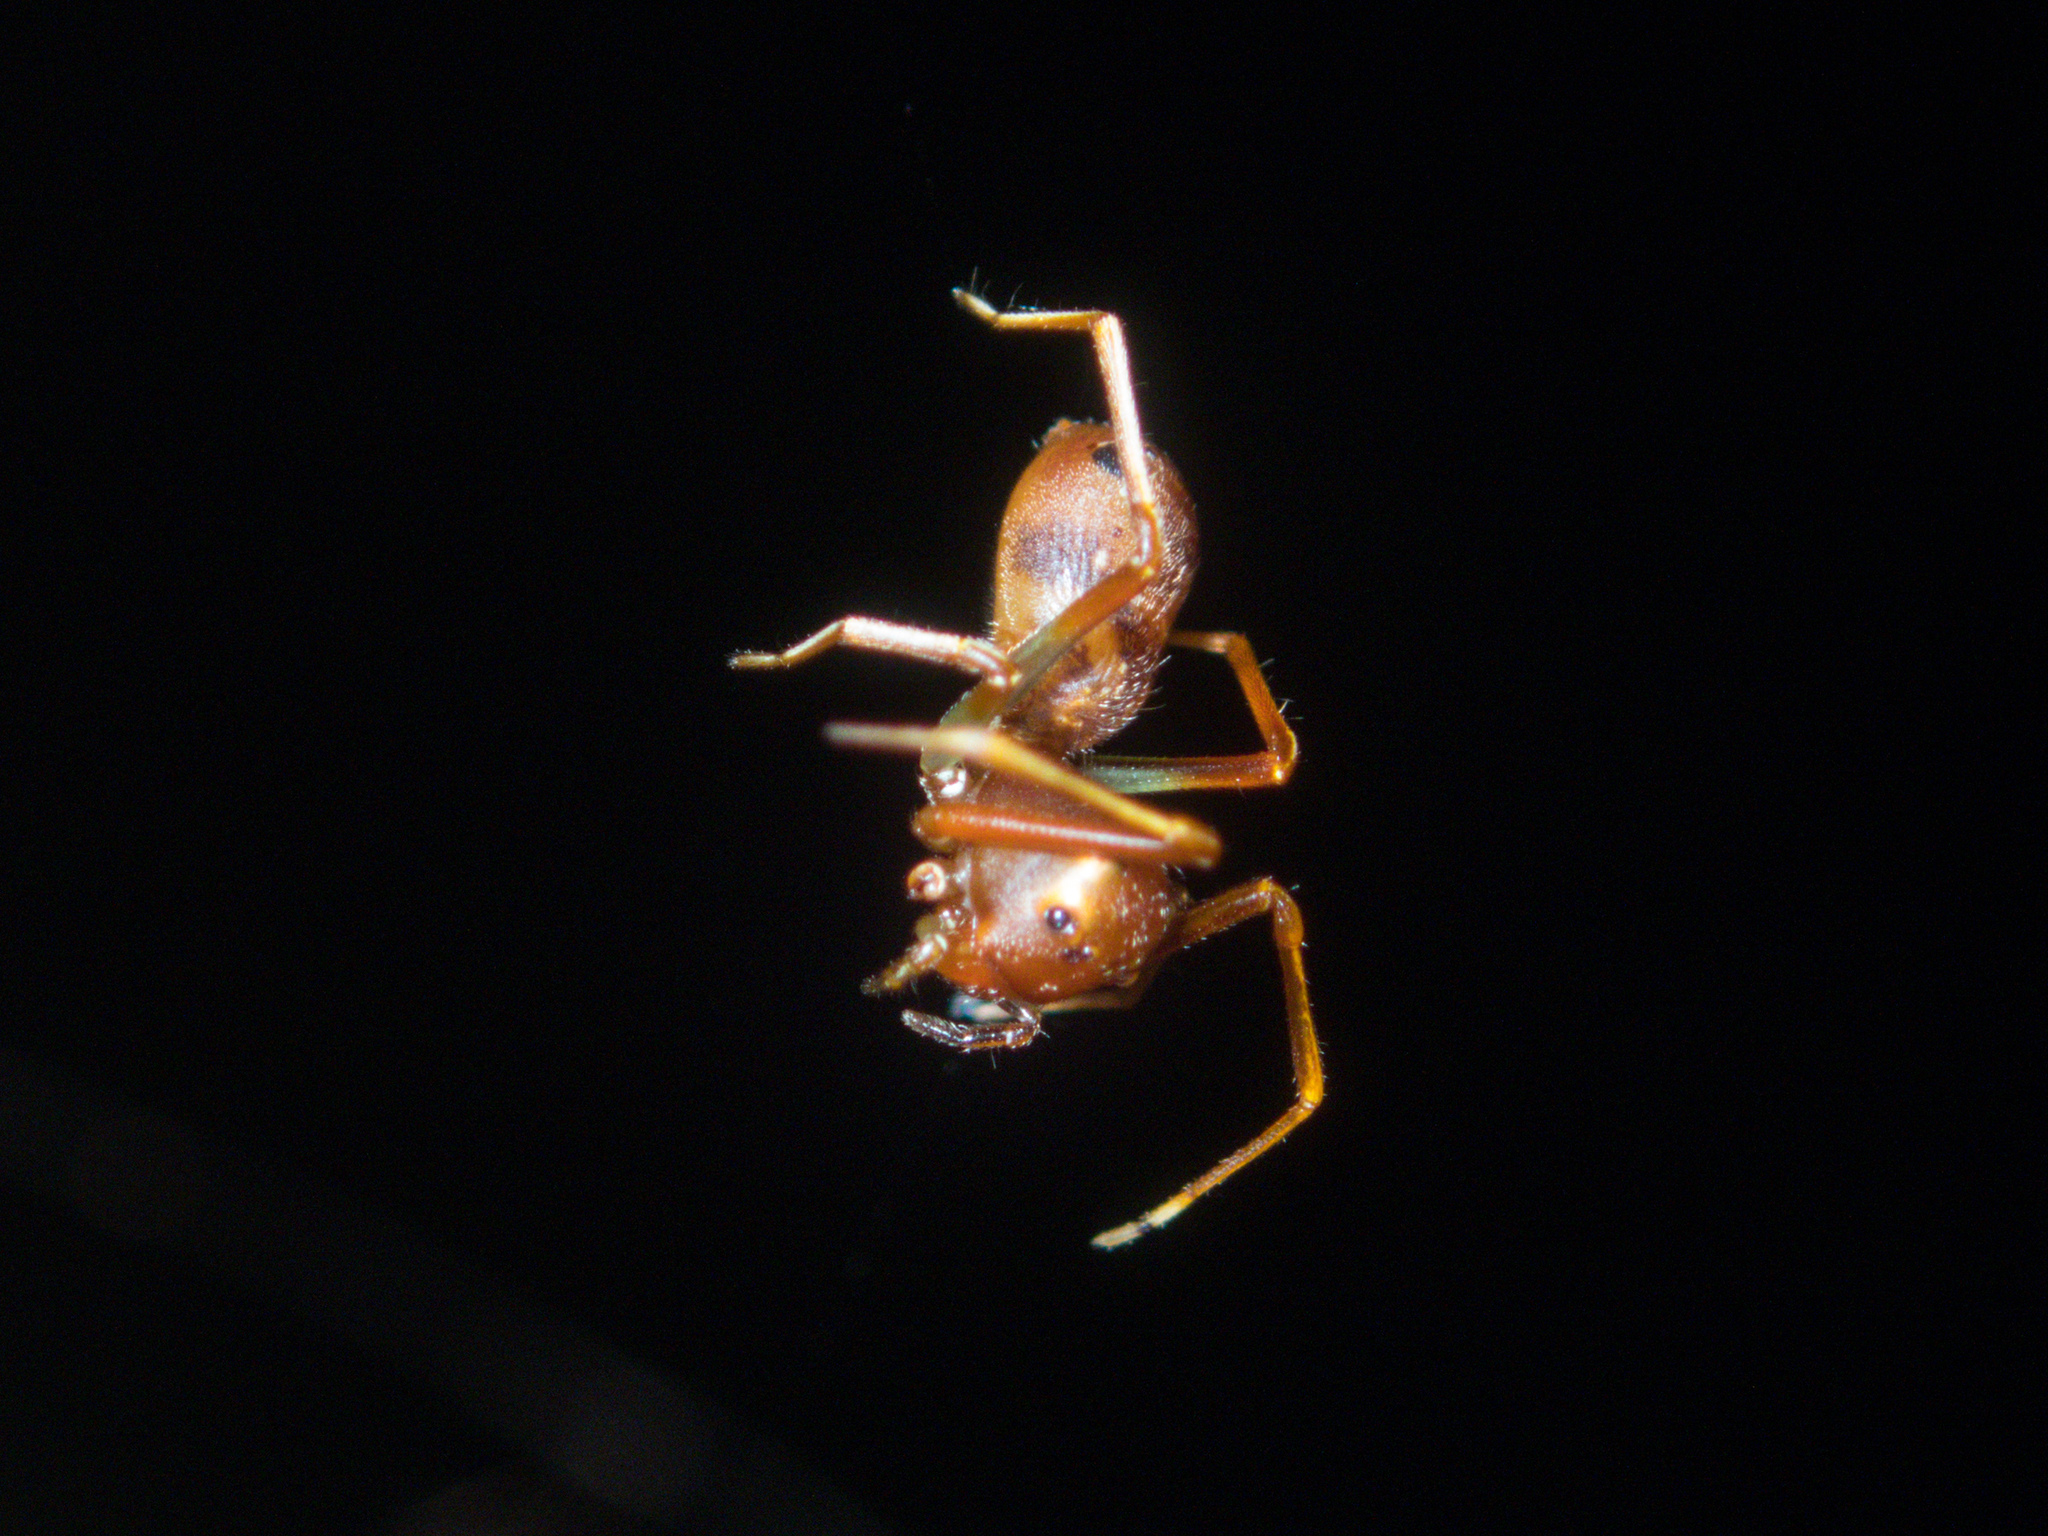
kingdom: Animalia
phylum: Arthropoda
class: Arachnida
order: Araneae
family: Thomisidae
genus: Amyciaea
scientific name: Amyciaea forticeps
